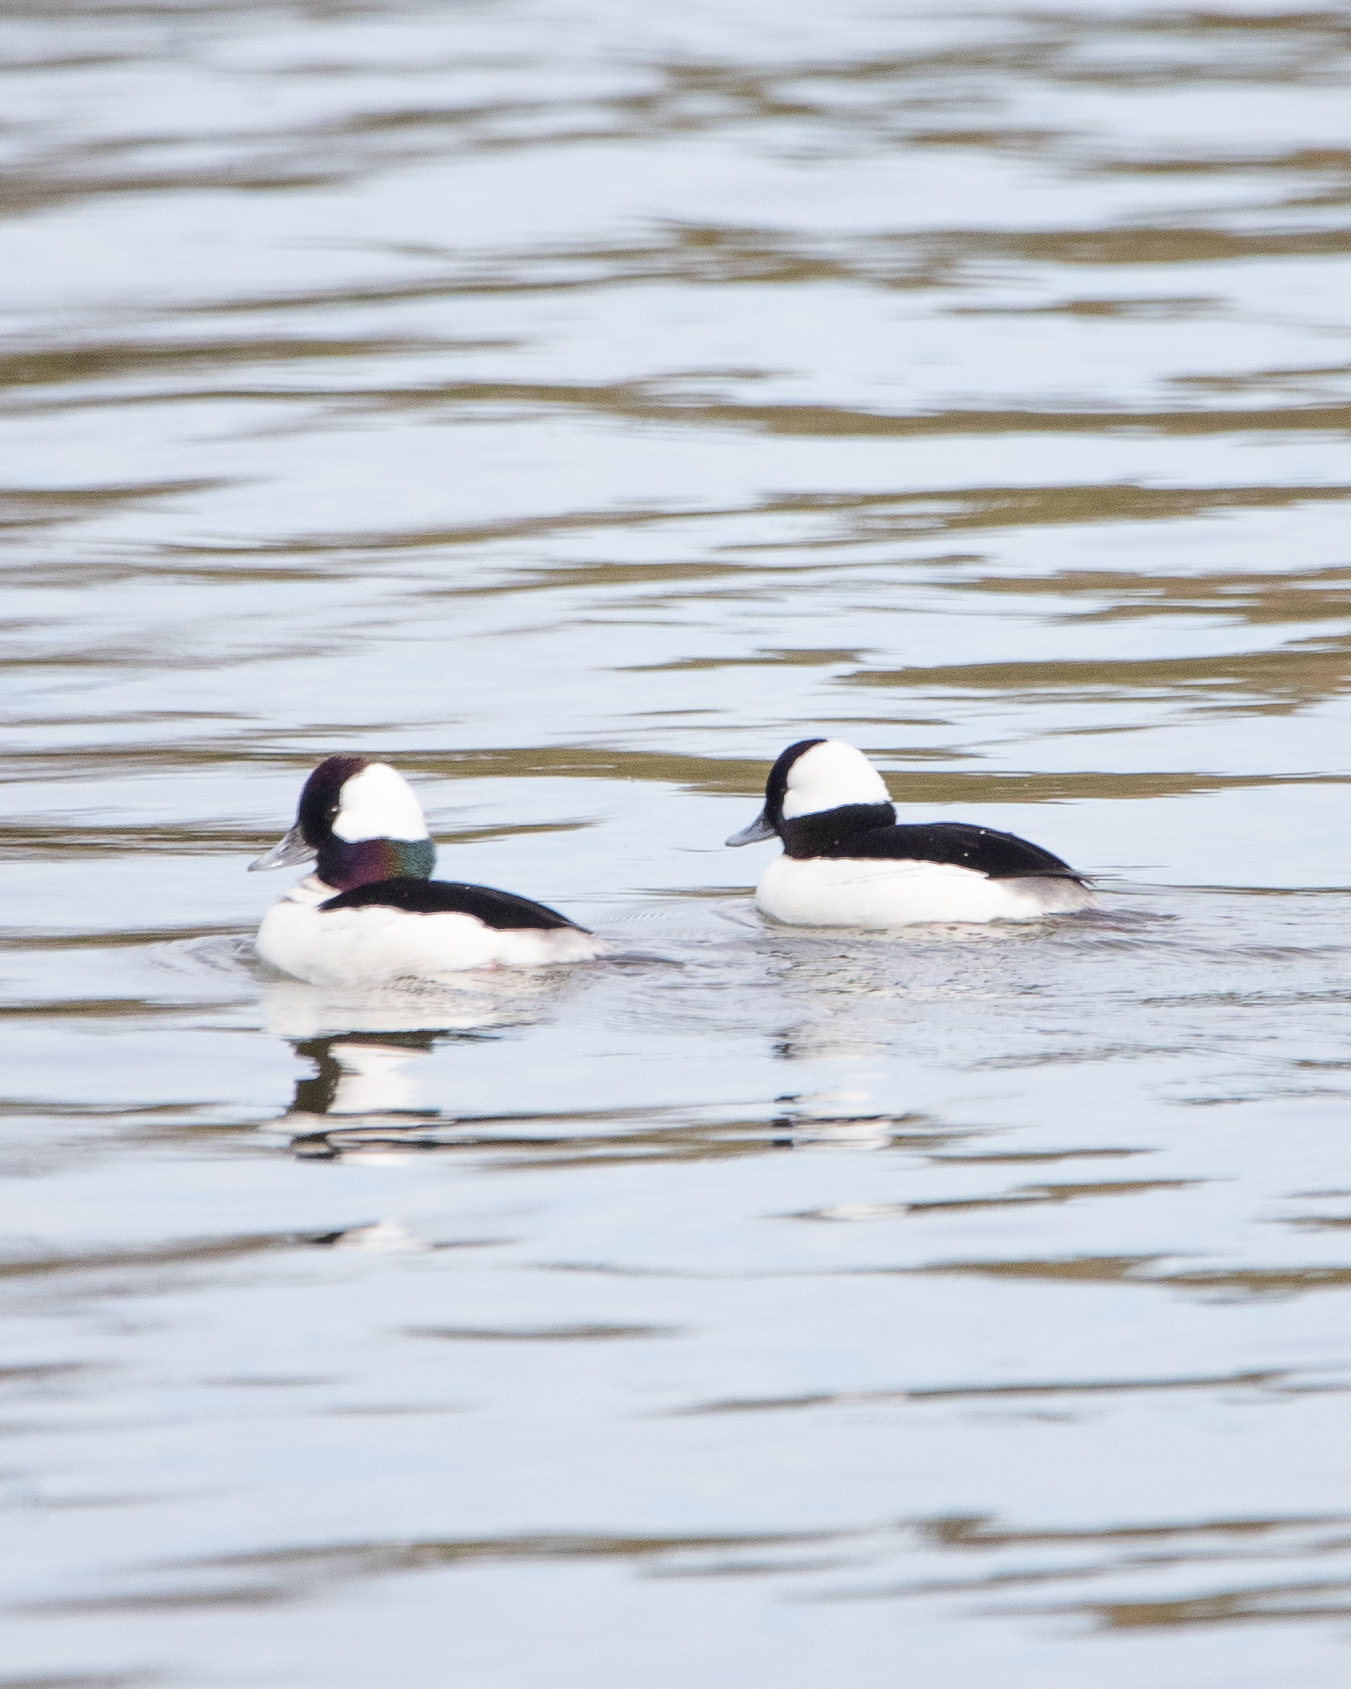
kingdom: Animalia
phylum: Chordata
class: Aves
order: Anseriformes
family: Anatidae
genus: Bucephala
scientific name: Bucephala albeola
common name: Bufflehead
